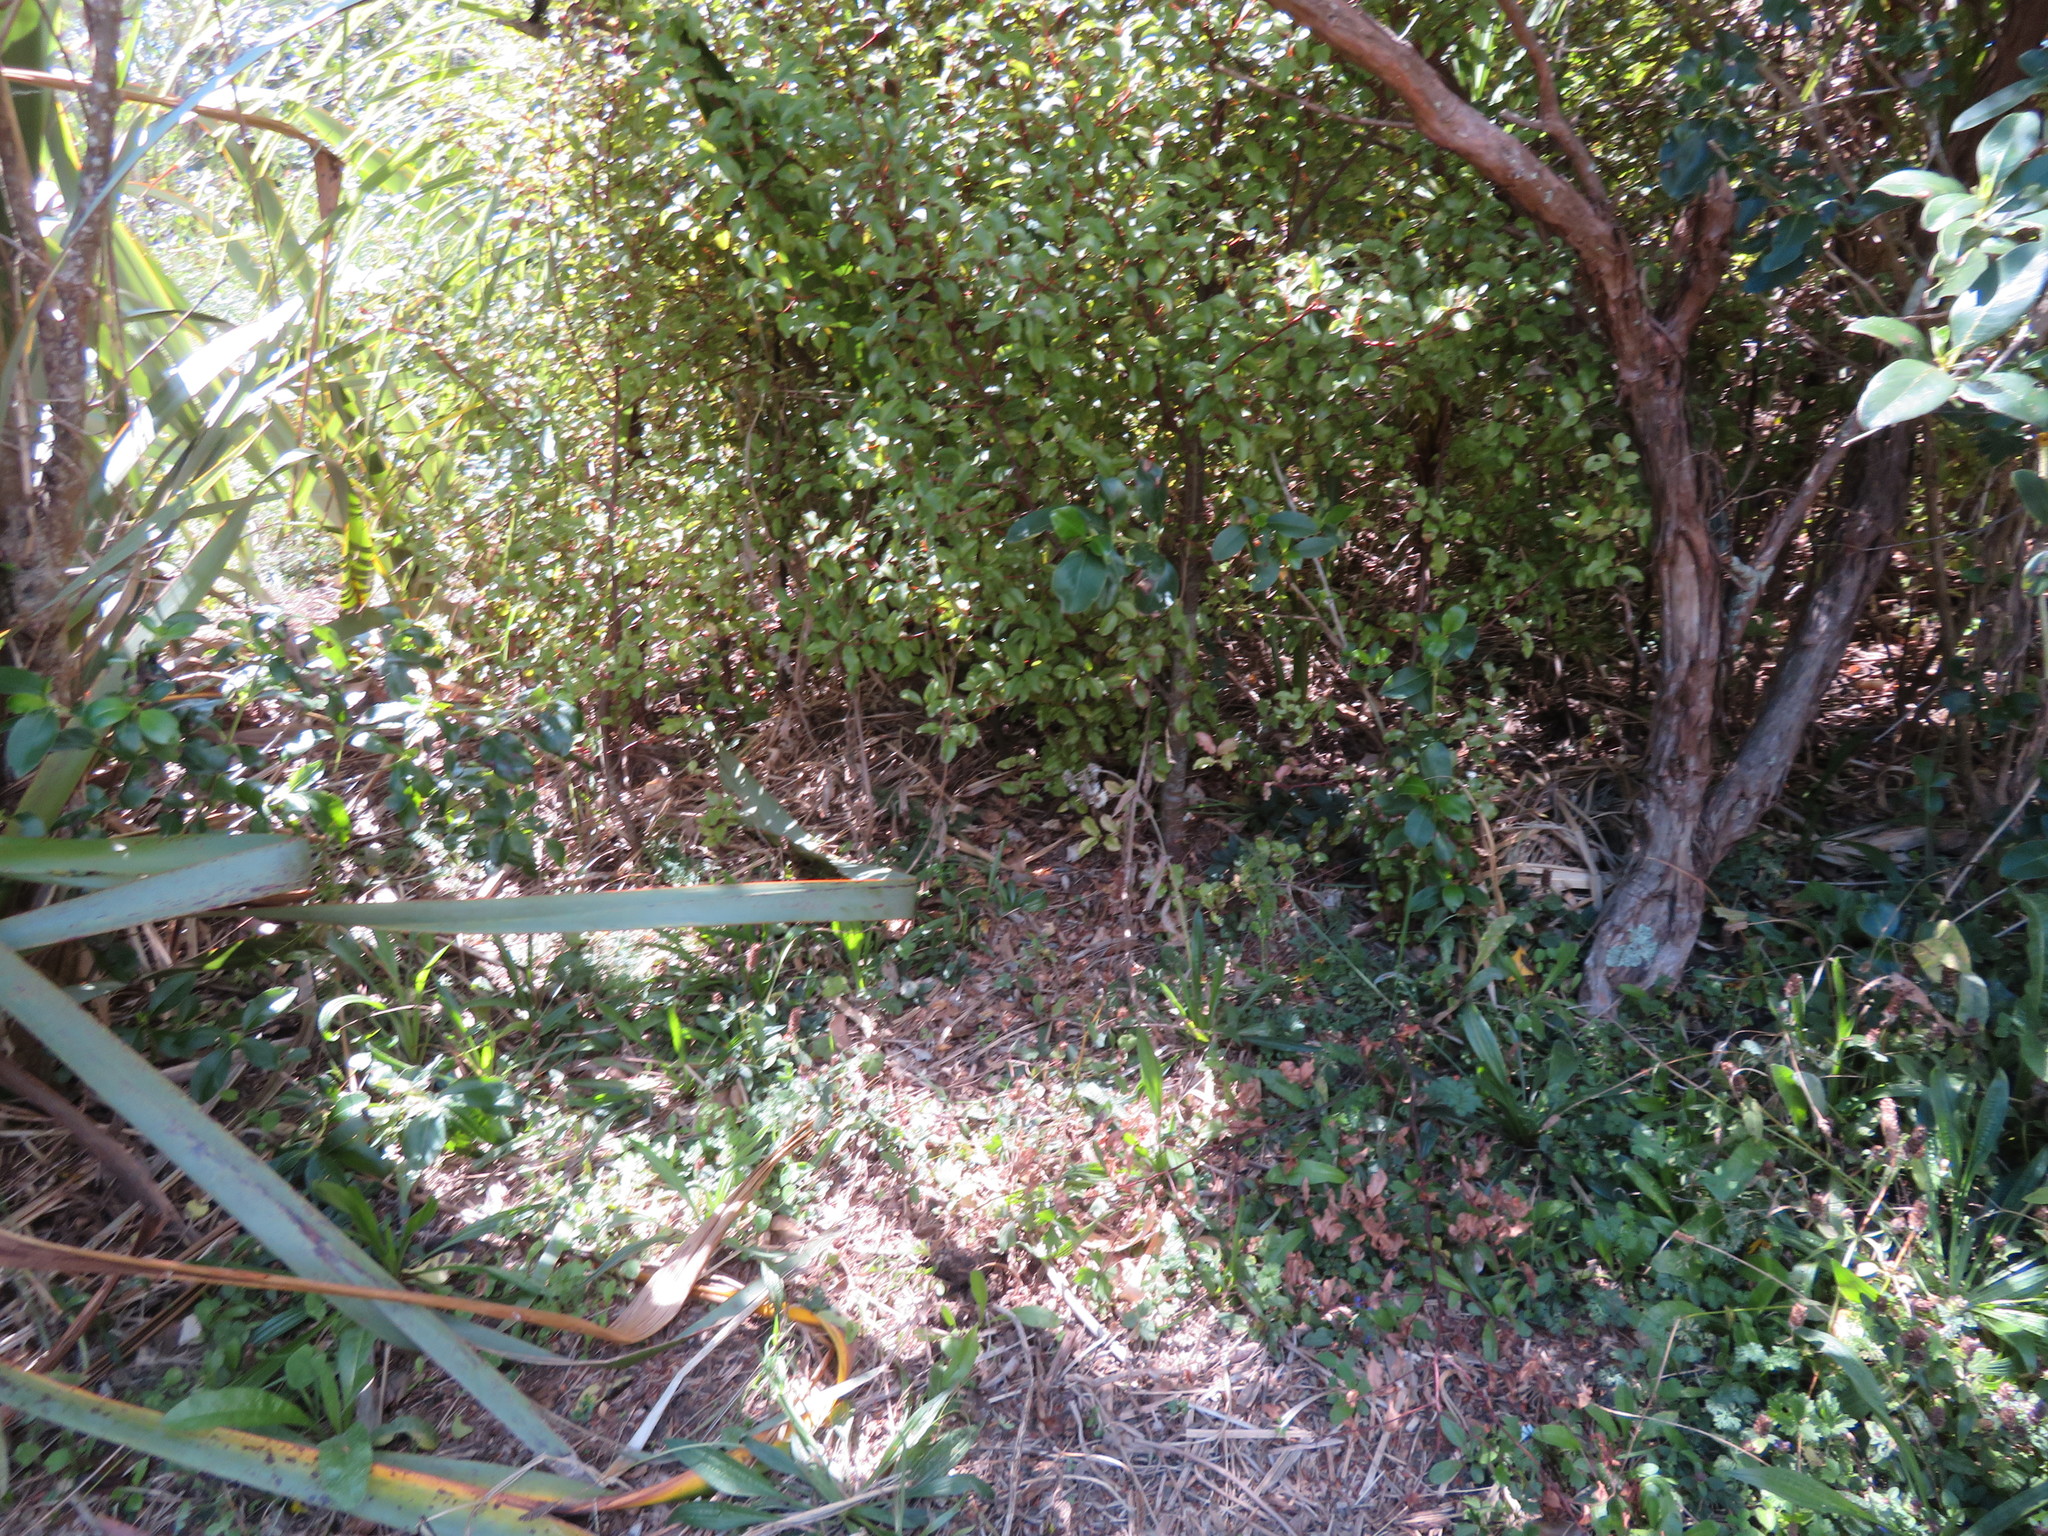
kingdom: Plantae
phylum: Tracheophyta
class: Magnoliopsida
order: Ericales
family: Primulaceae
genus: Myrsine
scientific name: Myrsine australis
